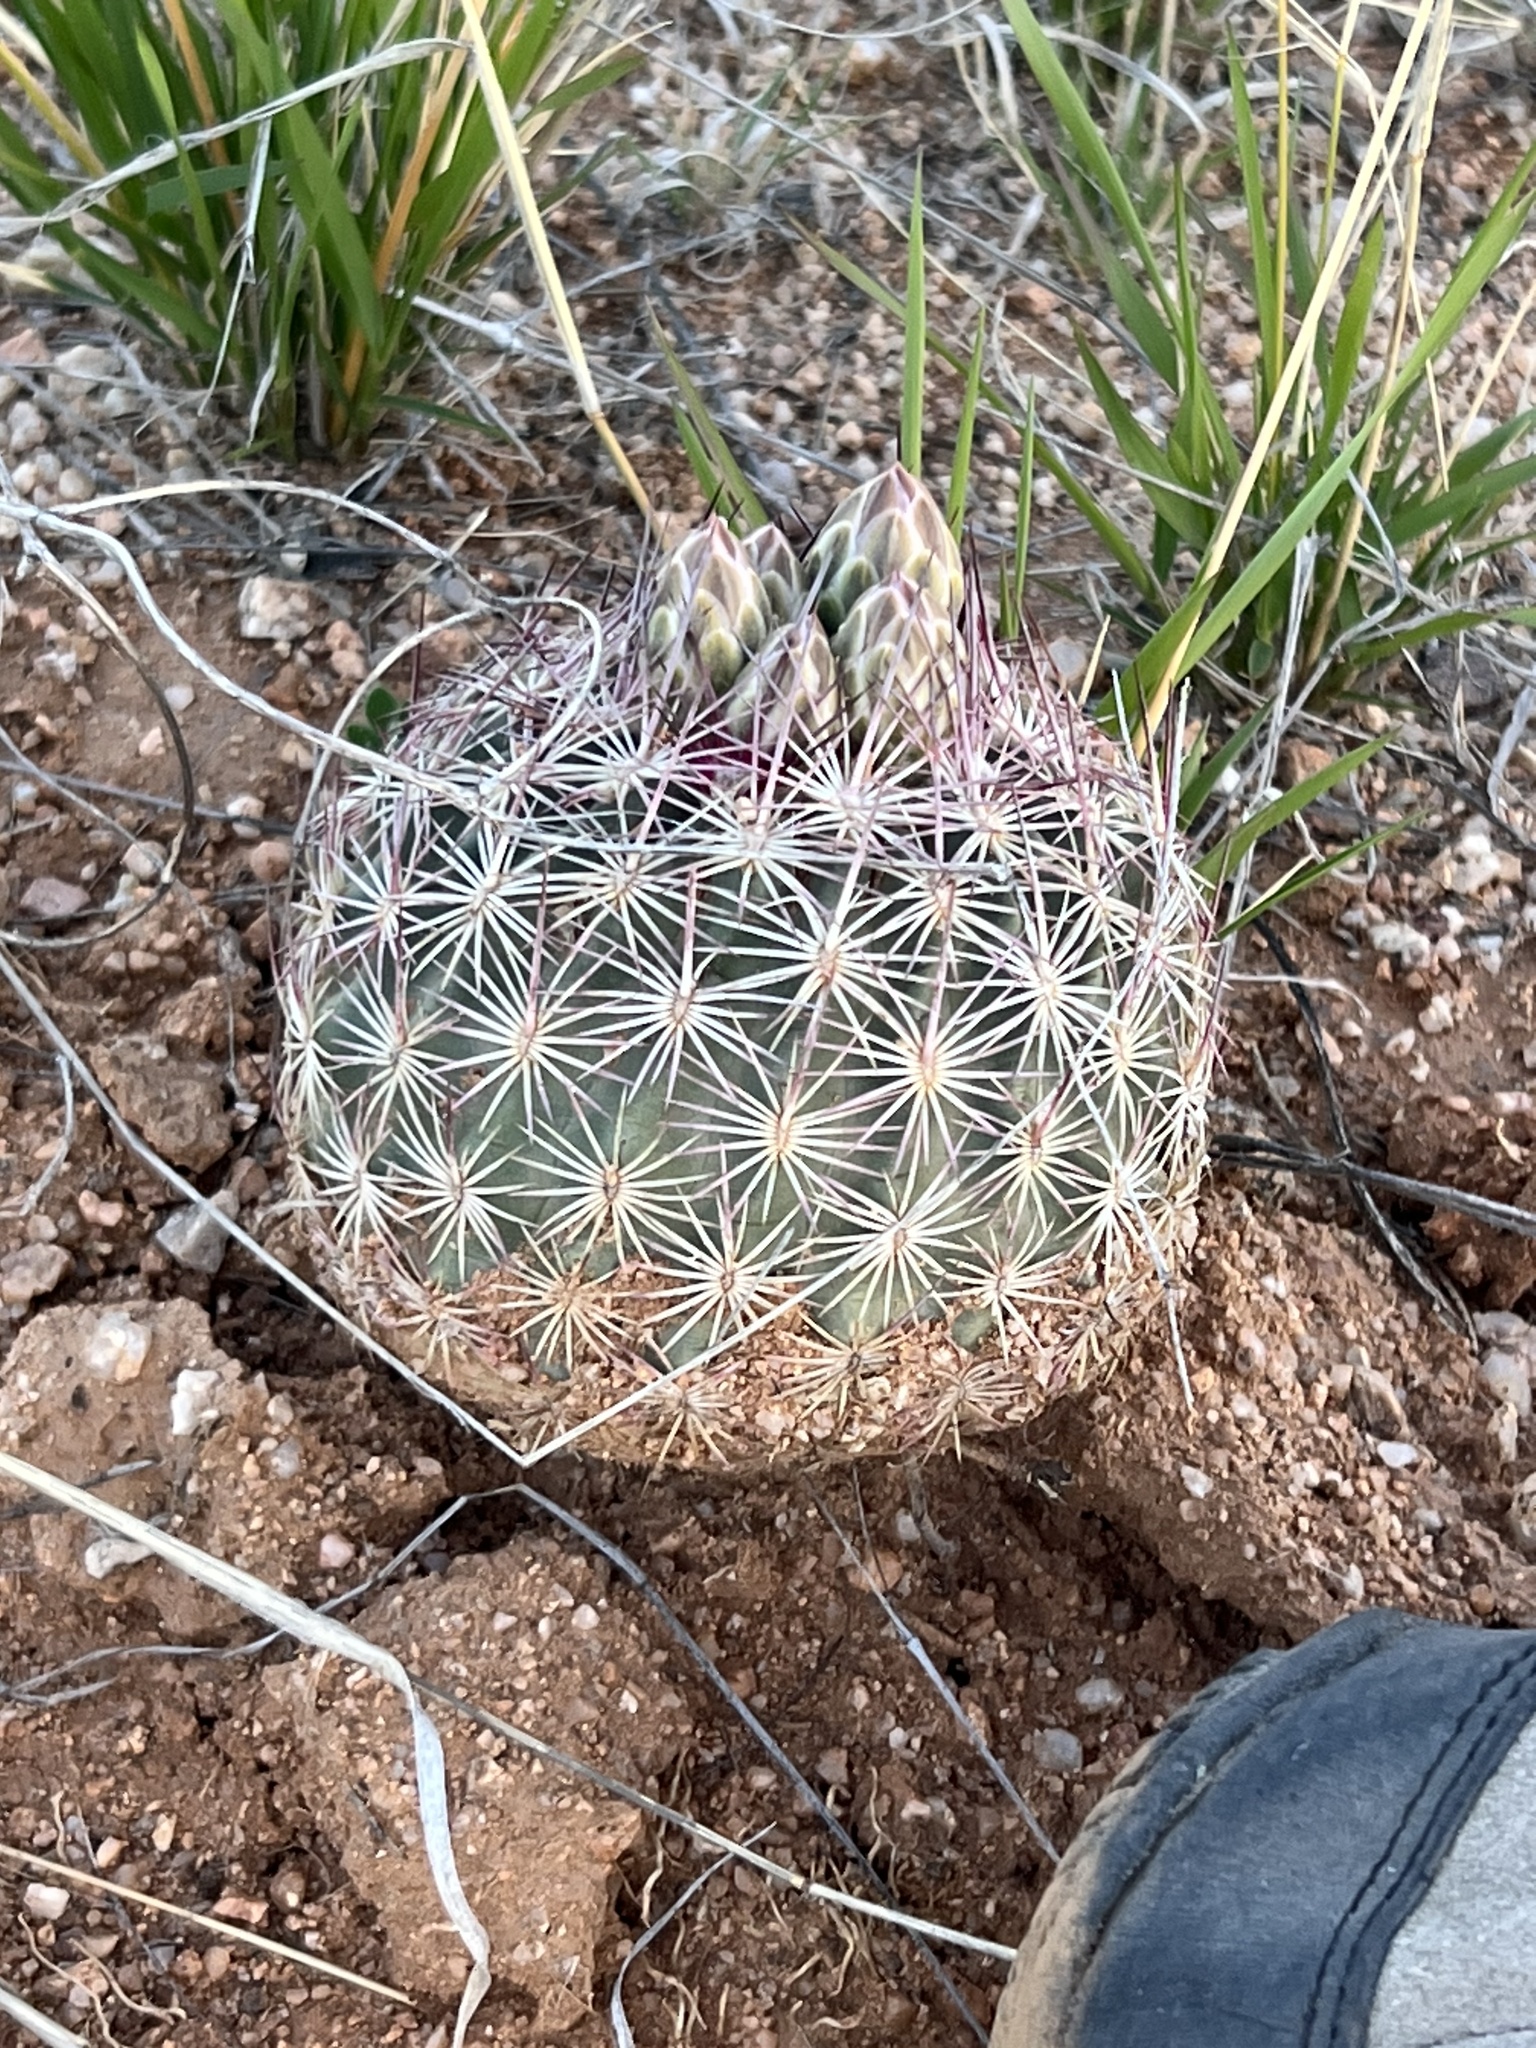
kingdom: Plantae
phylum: Tracheophyta
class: Magnoliopsida
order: Caryophyllales
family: Cactaceae
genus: Sclerocactus
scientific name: Sclerocactus johnsonii
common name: Eight-spine fishhook cactus
